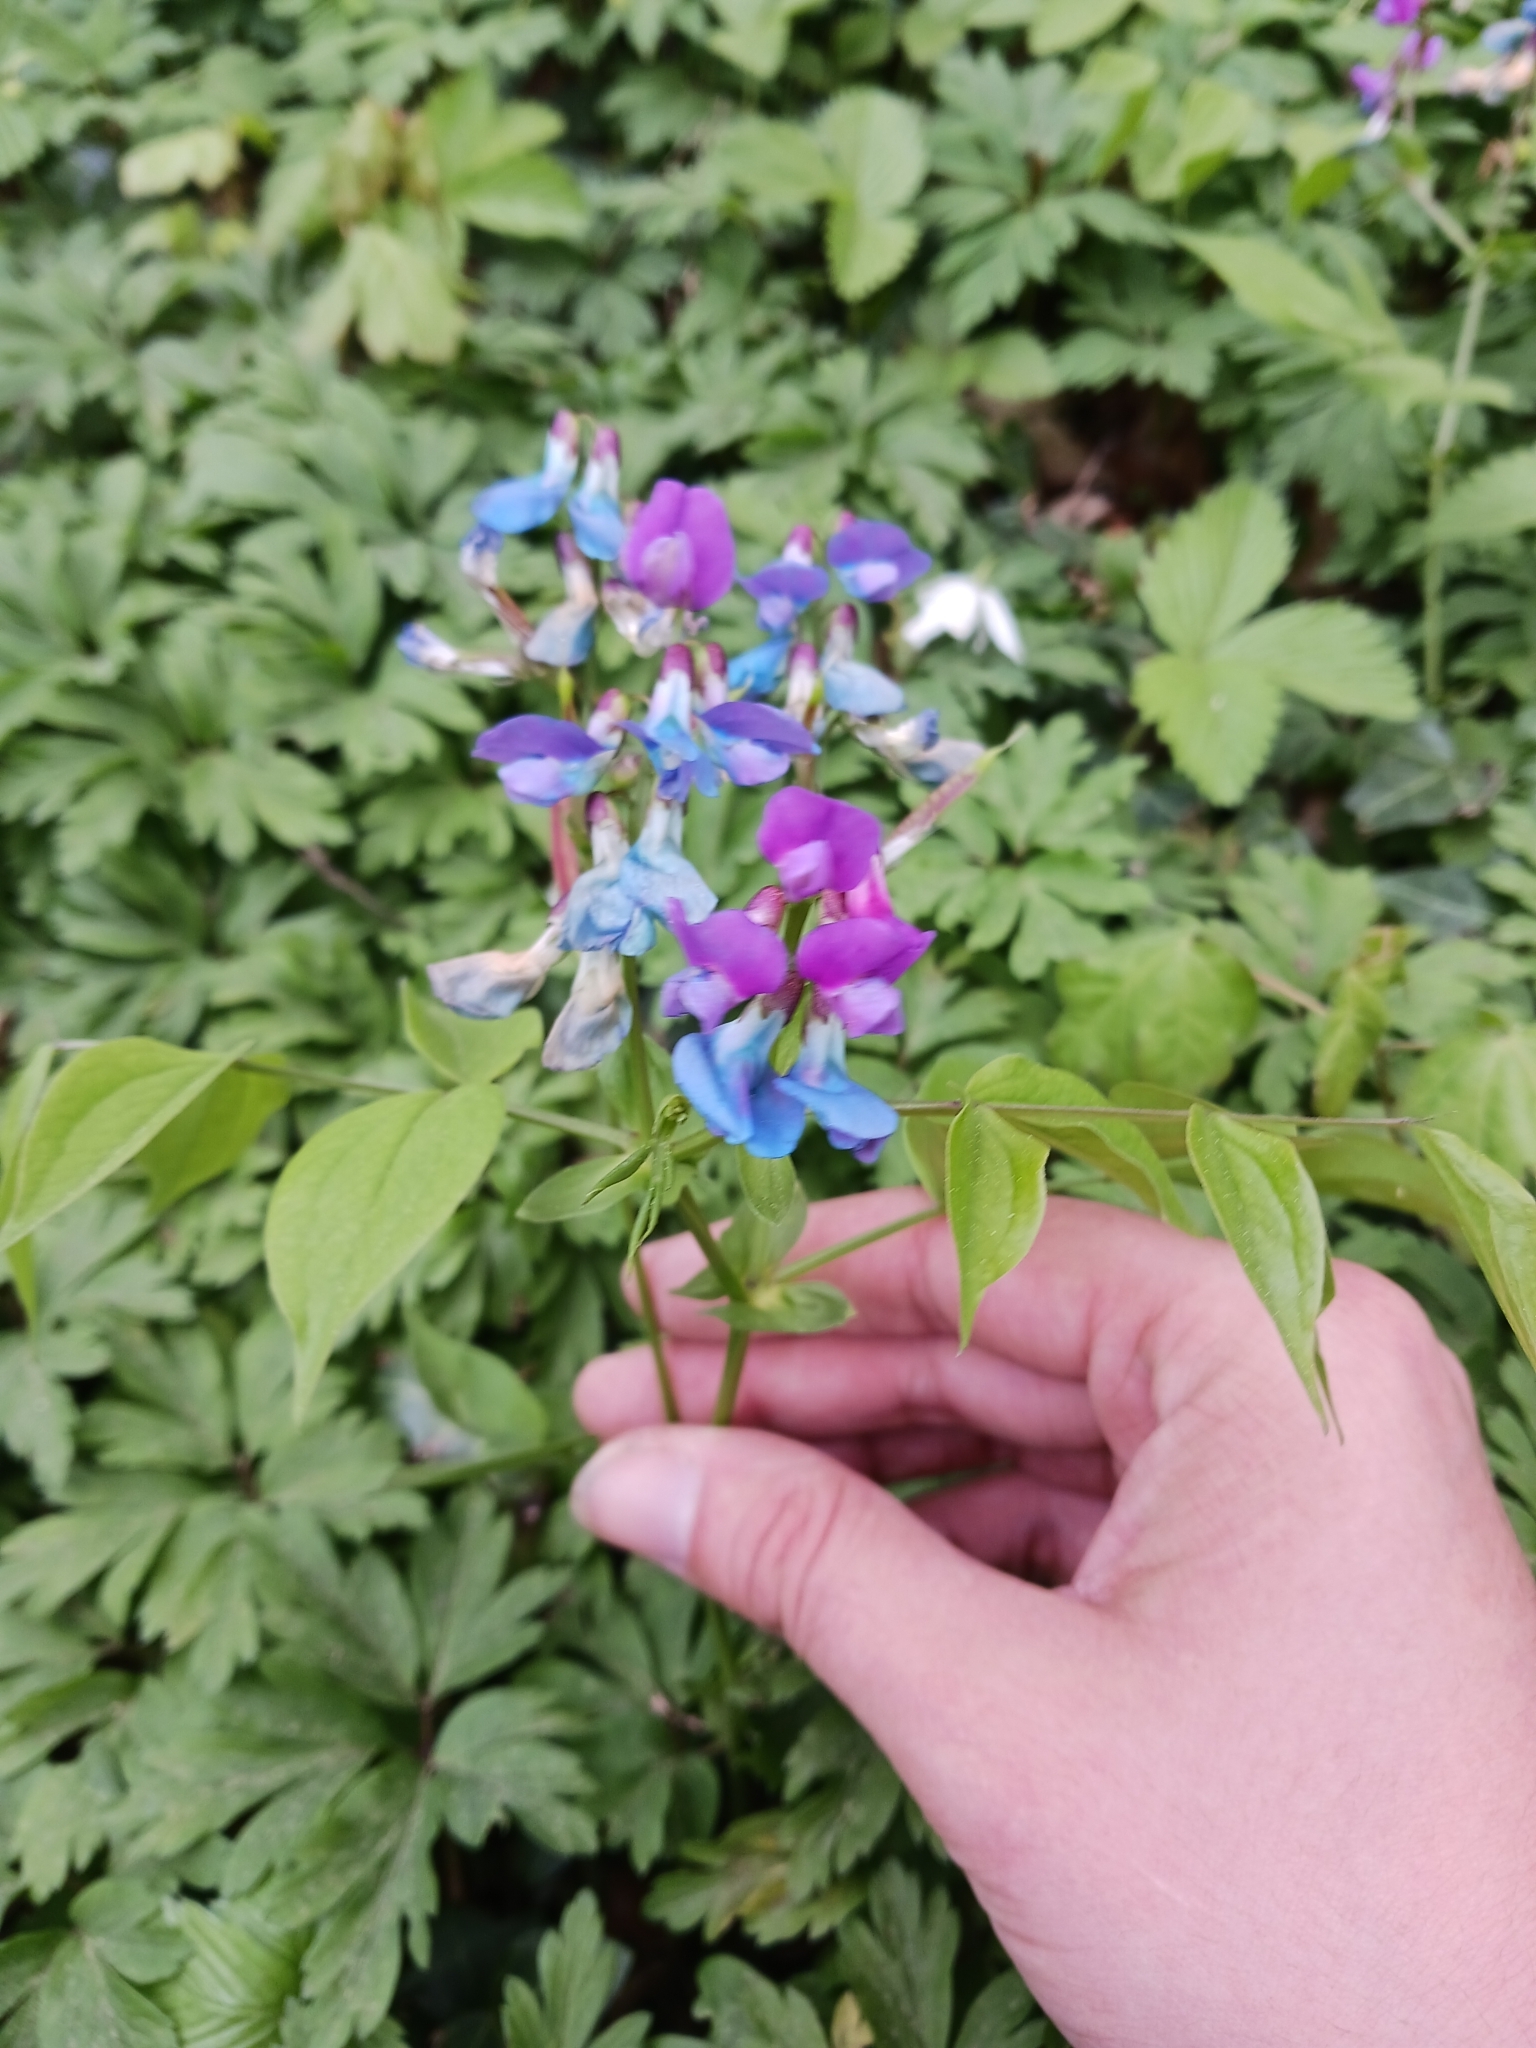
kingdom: Plantae
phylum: Tracheophyta
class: Magnoliopsida
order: Fabales
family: Fabaceae
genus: Lathyrus
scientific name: Lathyrus vernus
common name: Spring pea
